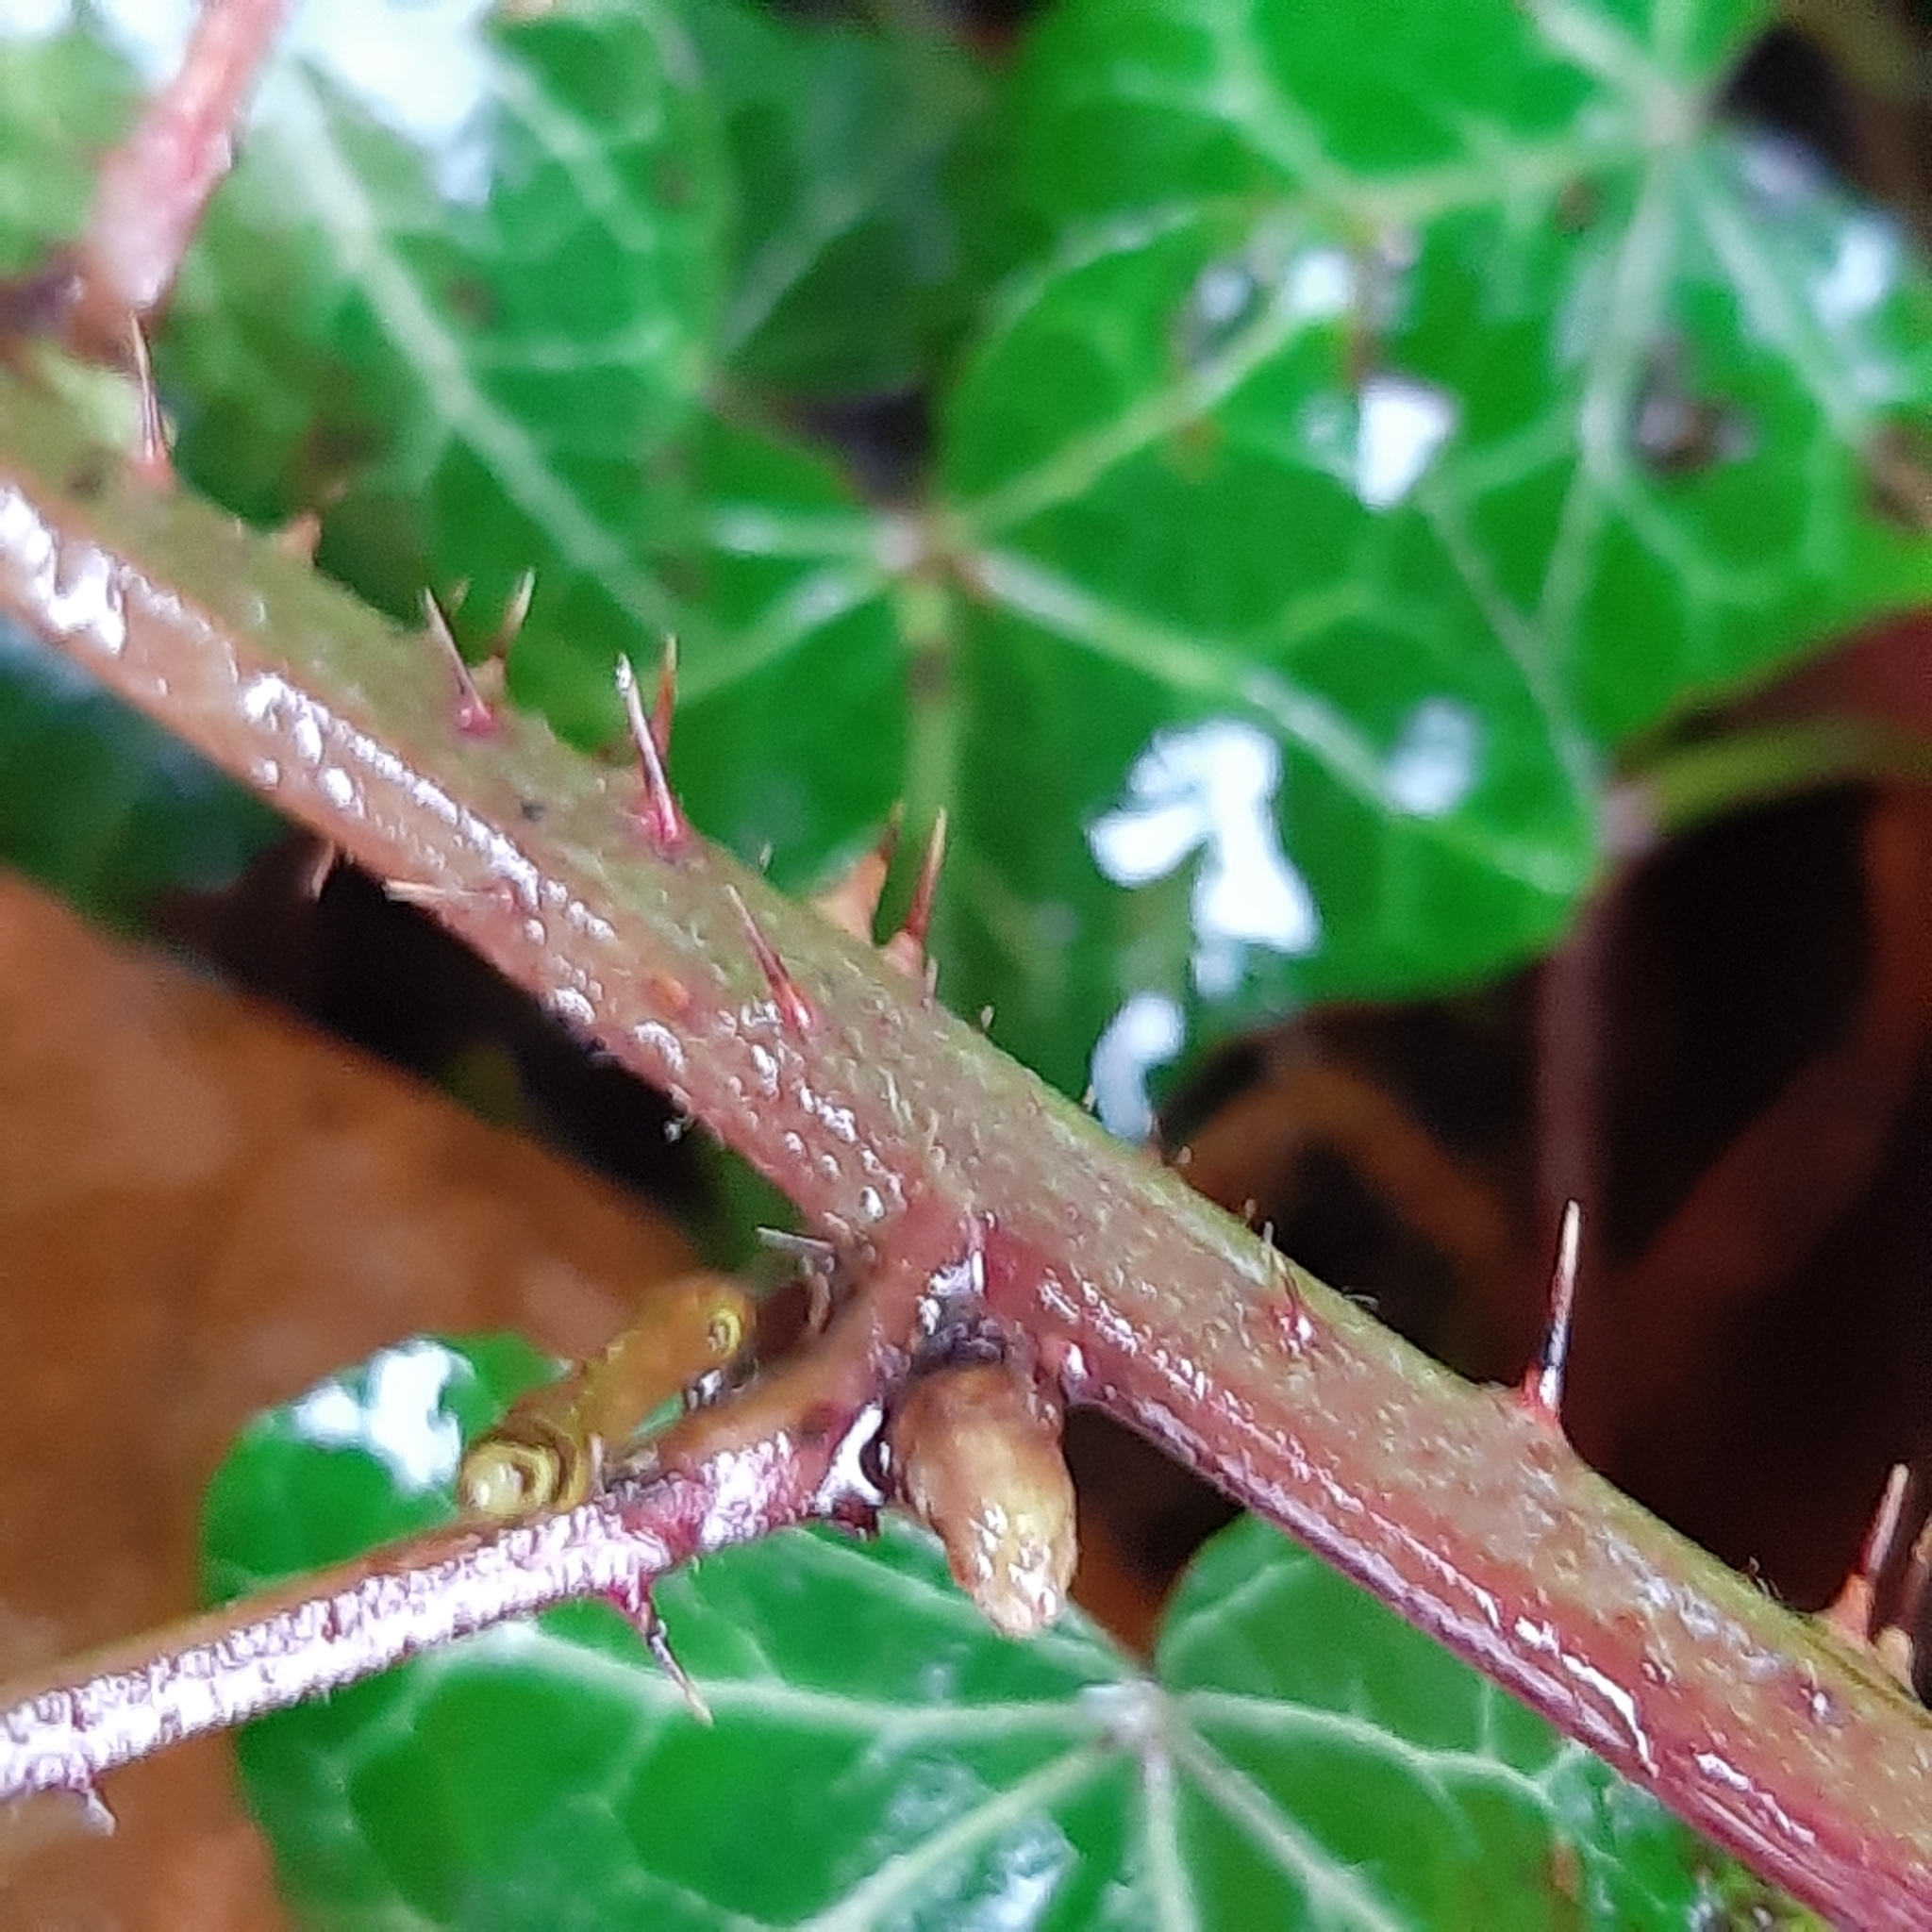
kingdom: Plantae
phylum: Tracheophyta
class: Magnoliopsida
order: Rosales
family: Rosaceae
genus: Rubus
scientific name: Rubus caesius
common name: Dewberry
